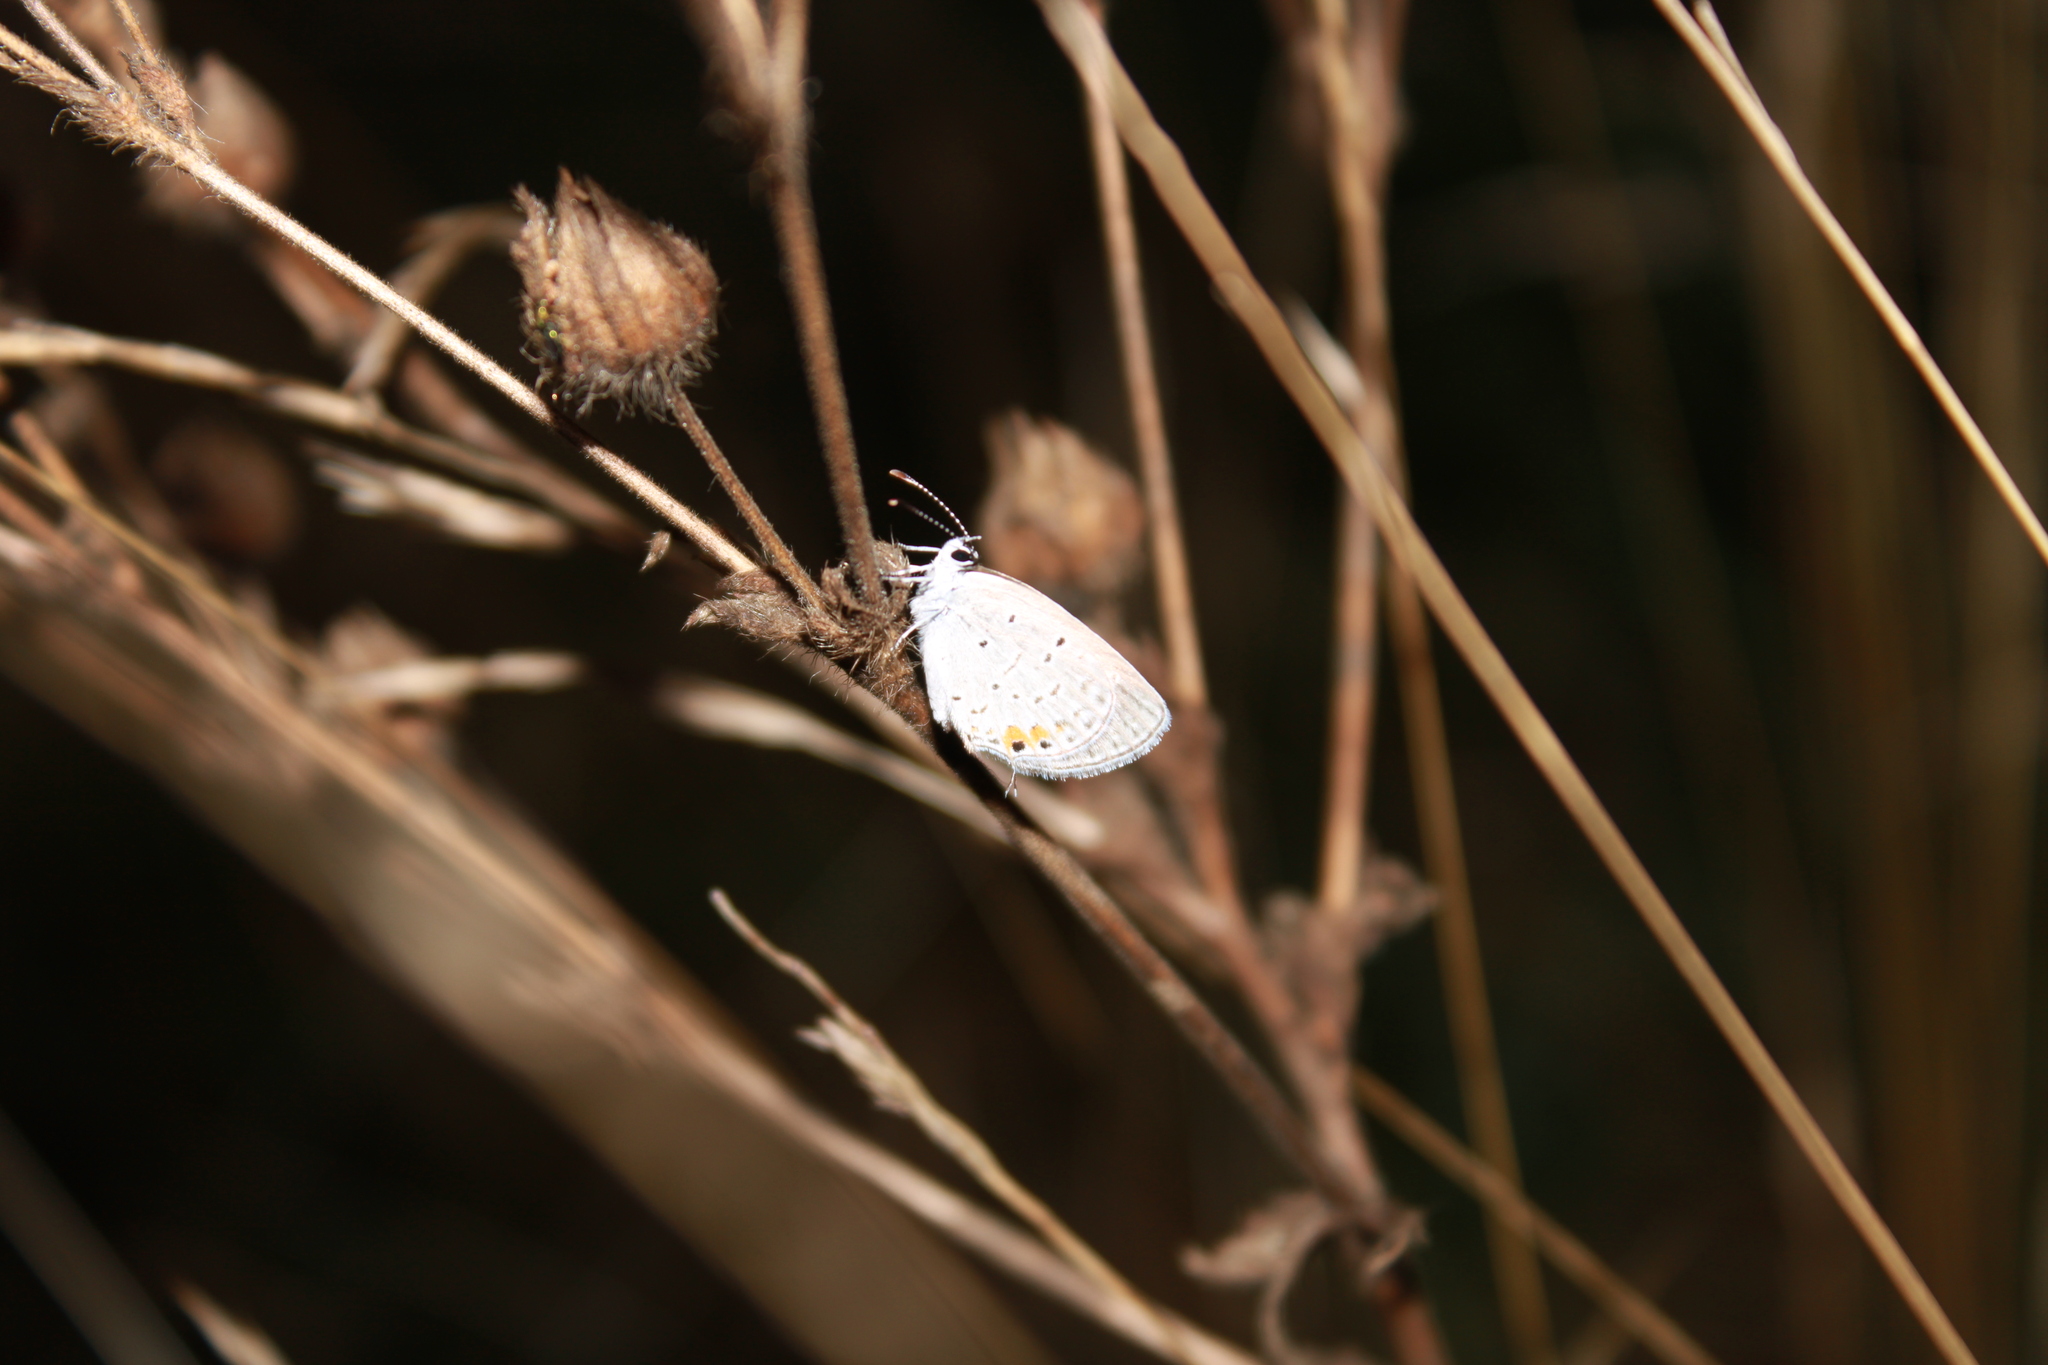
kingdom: Animalia
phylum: Arthropoda
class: Insecta
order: Lepidoptera
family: Lycaenidae
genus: Elkalyce
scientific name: Elkalyce comyntas
